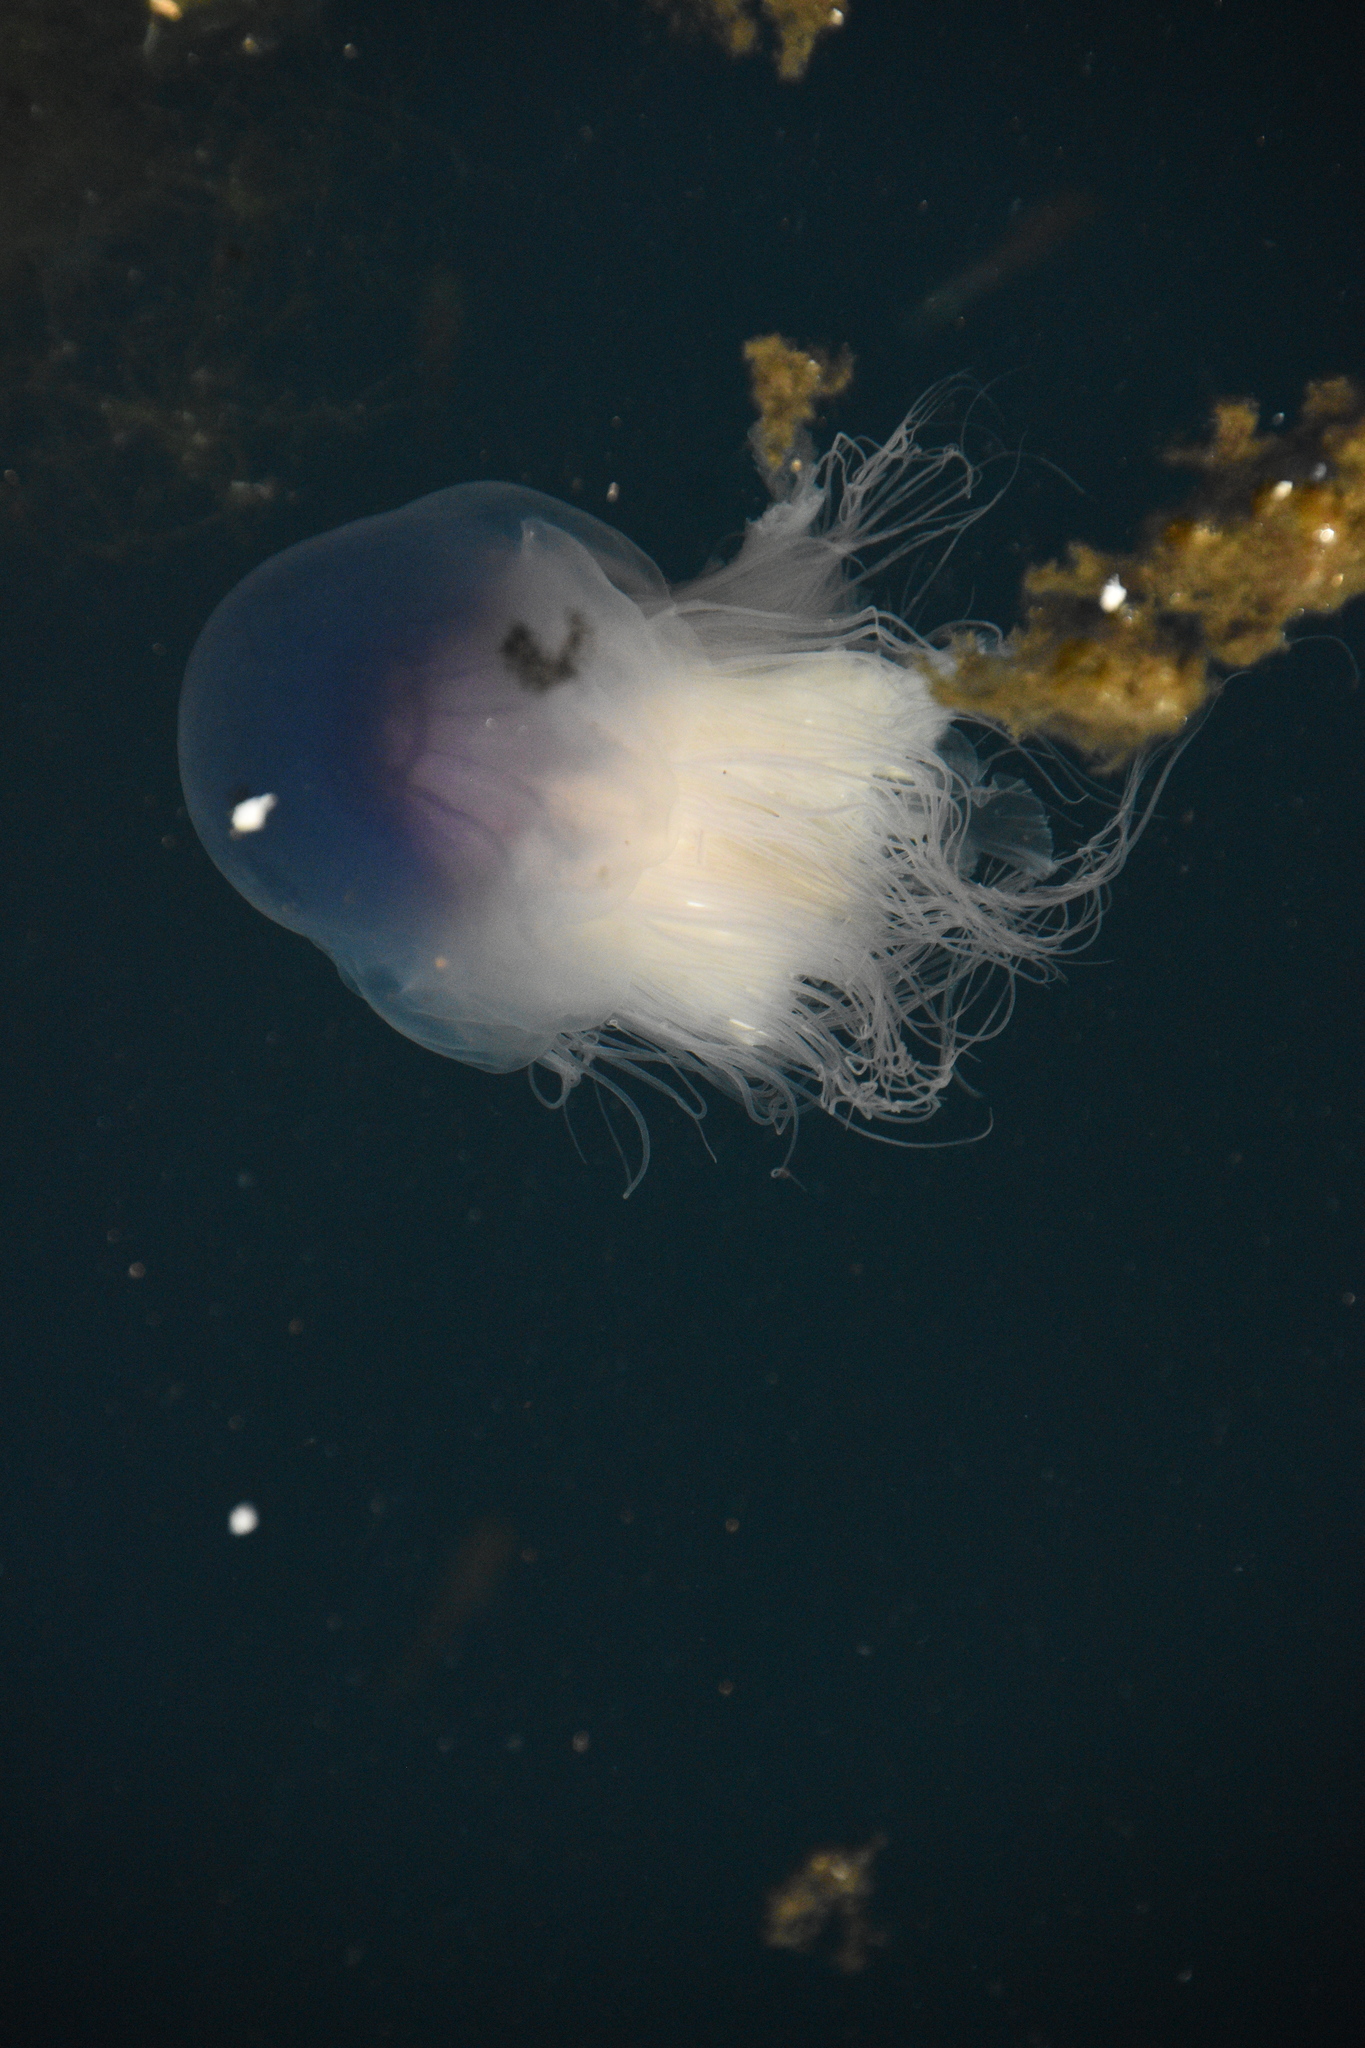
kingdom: Animalia
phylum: Cnidaria
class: Scyphozoa
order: Semaeostomeae
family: Cyaneidae
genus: Cyanea
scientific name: Cyanea lamarckii
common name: Blue jellyfish
